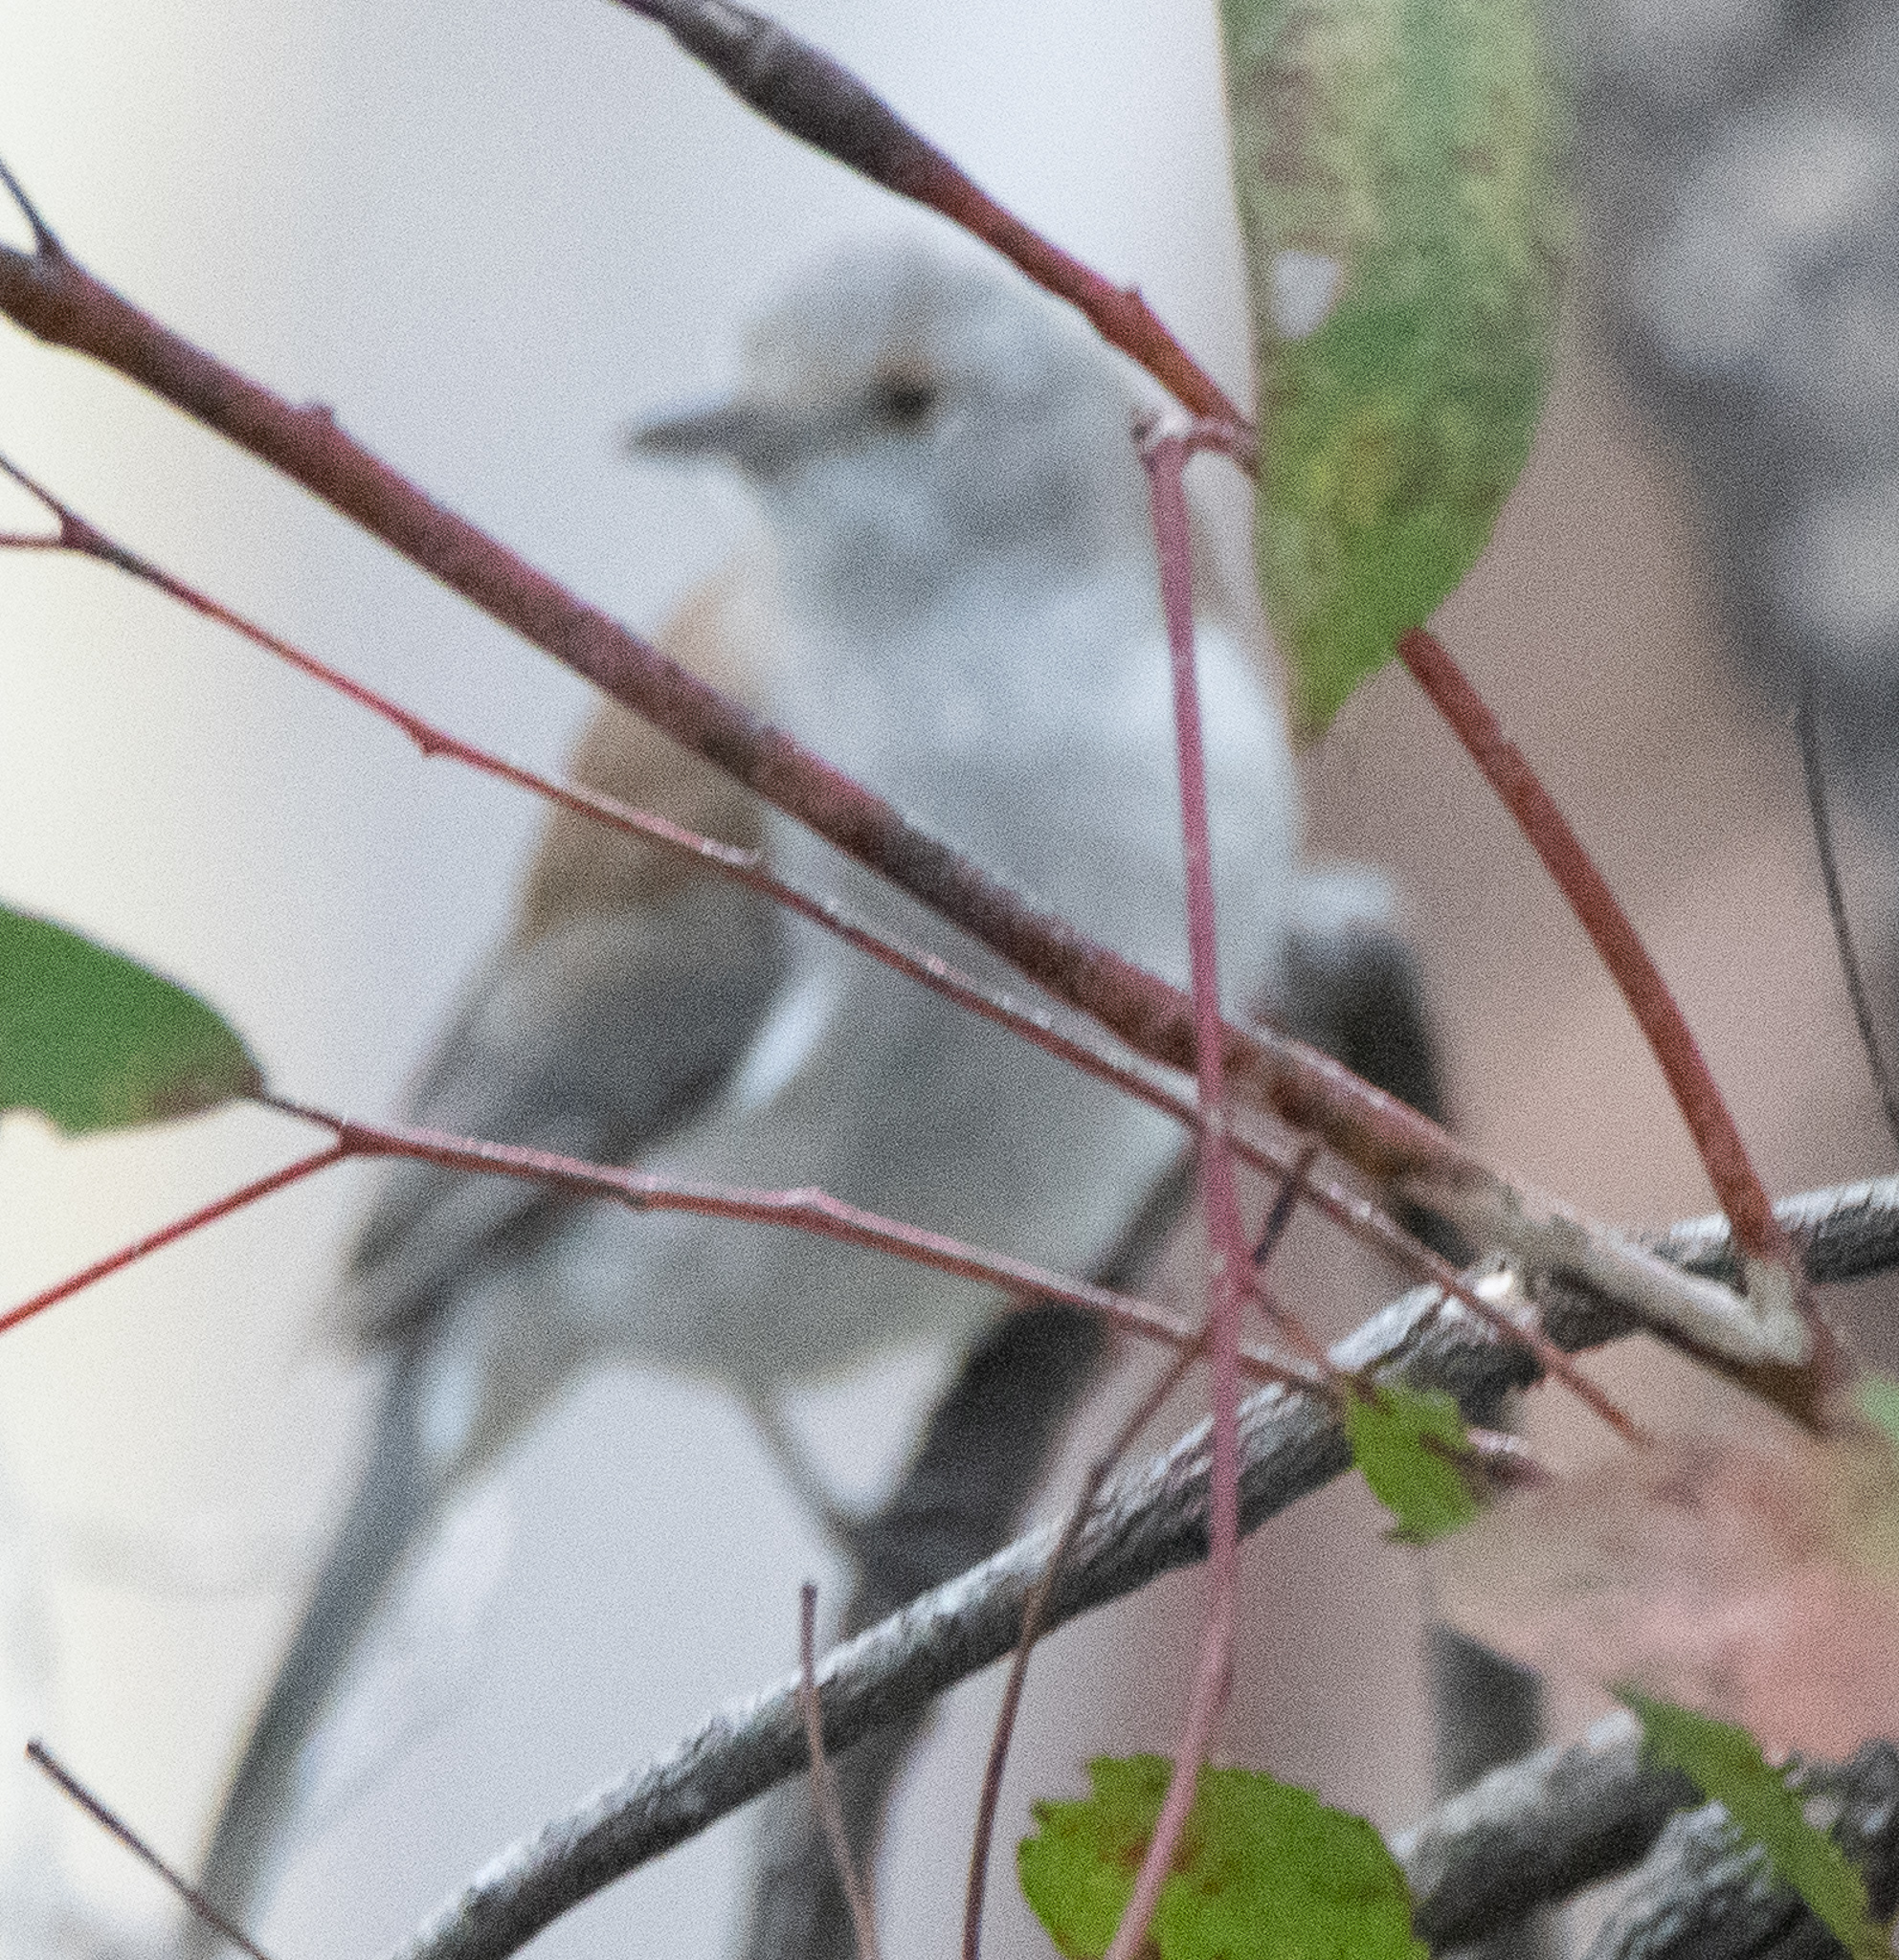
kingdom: Animalia
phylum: Chordata
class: Aves
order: Passeriformes
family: Pachycephalidae
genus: Colluricincla
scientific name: Colluricincla harmonica
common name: Grey shrikethrush
